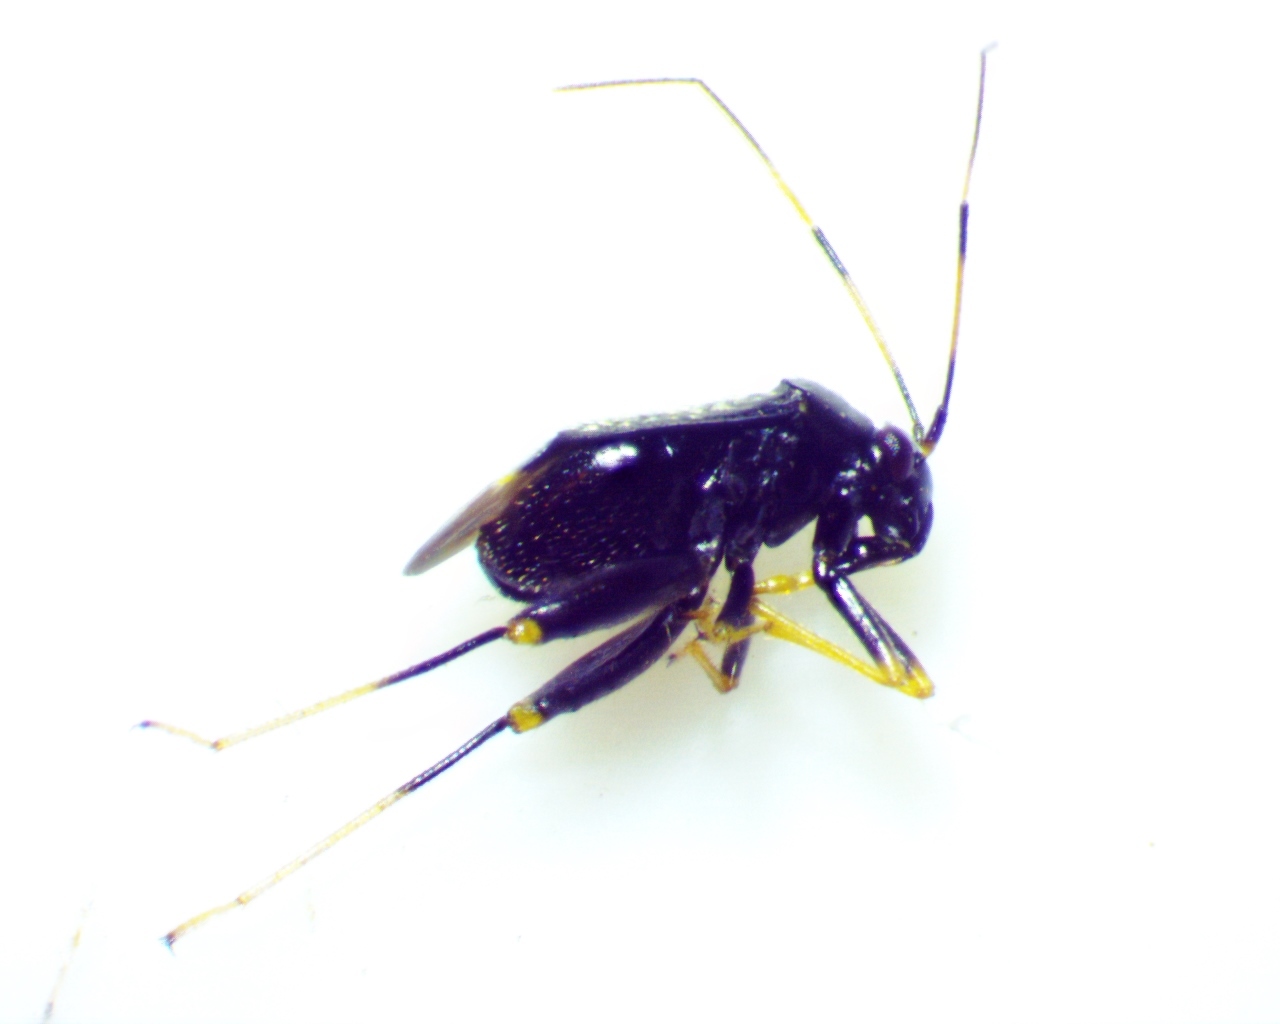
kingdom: Animalia
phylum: Arthropoda
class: Insecta
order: Hemiptera
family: Miridae
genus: Microtechnites
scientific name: Microtechnites bractatus
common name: Garden fleahopper
